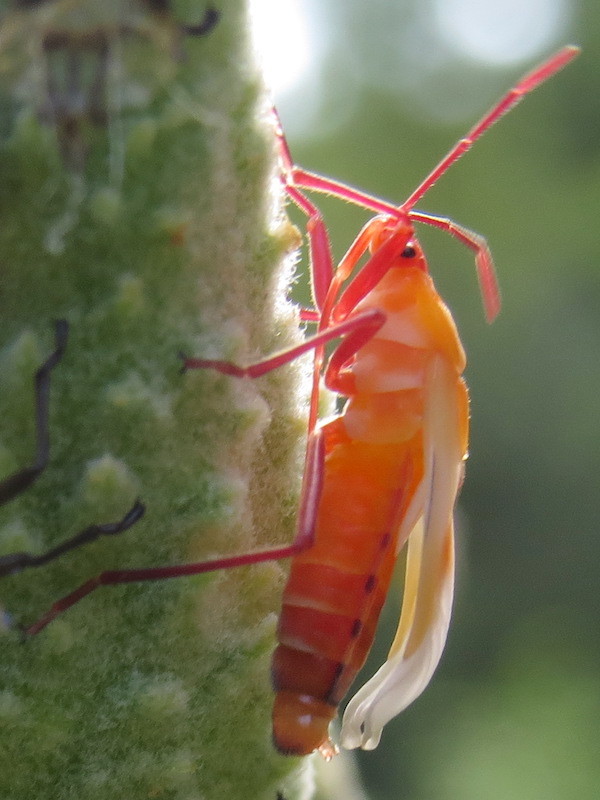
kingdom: Animalia
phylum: Arthropoda
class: Insecta
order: Hemiptera
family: Lygaeidae
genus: Oncopeltus
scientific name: Oncopeltus fasciatus
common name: Large milkweed bug
